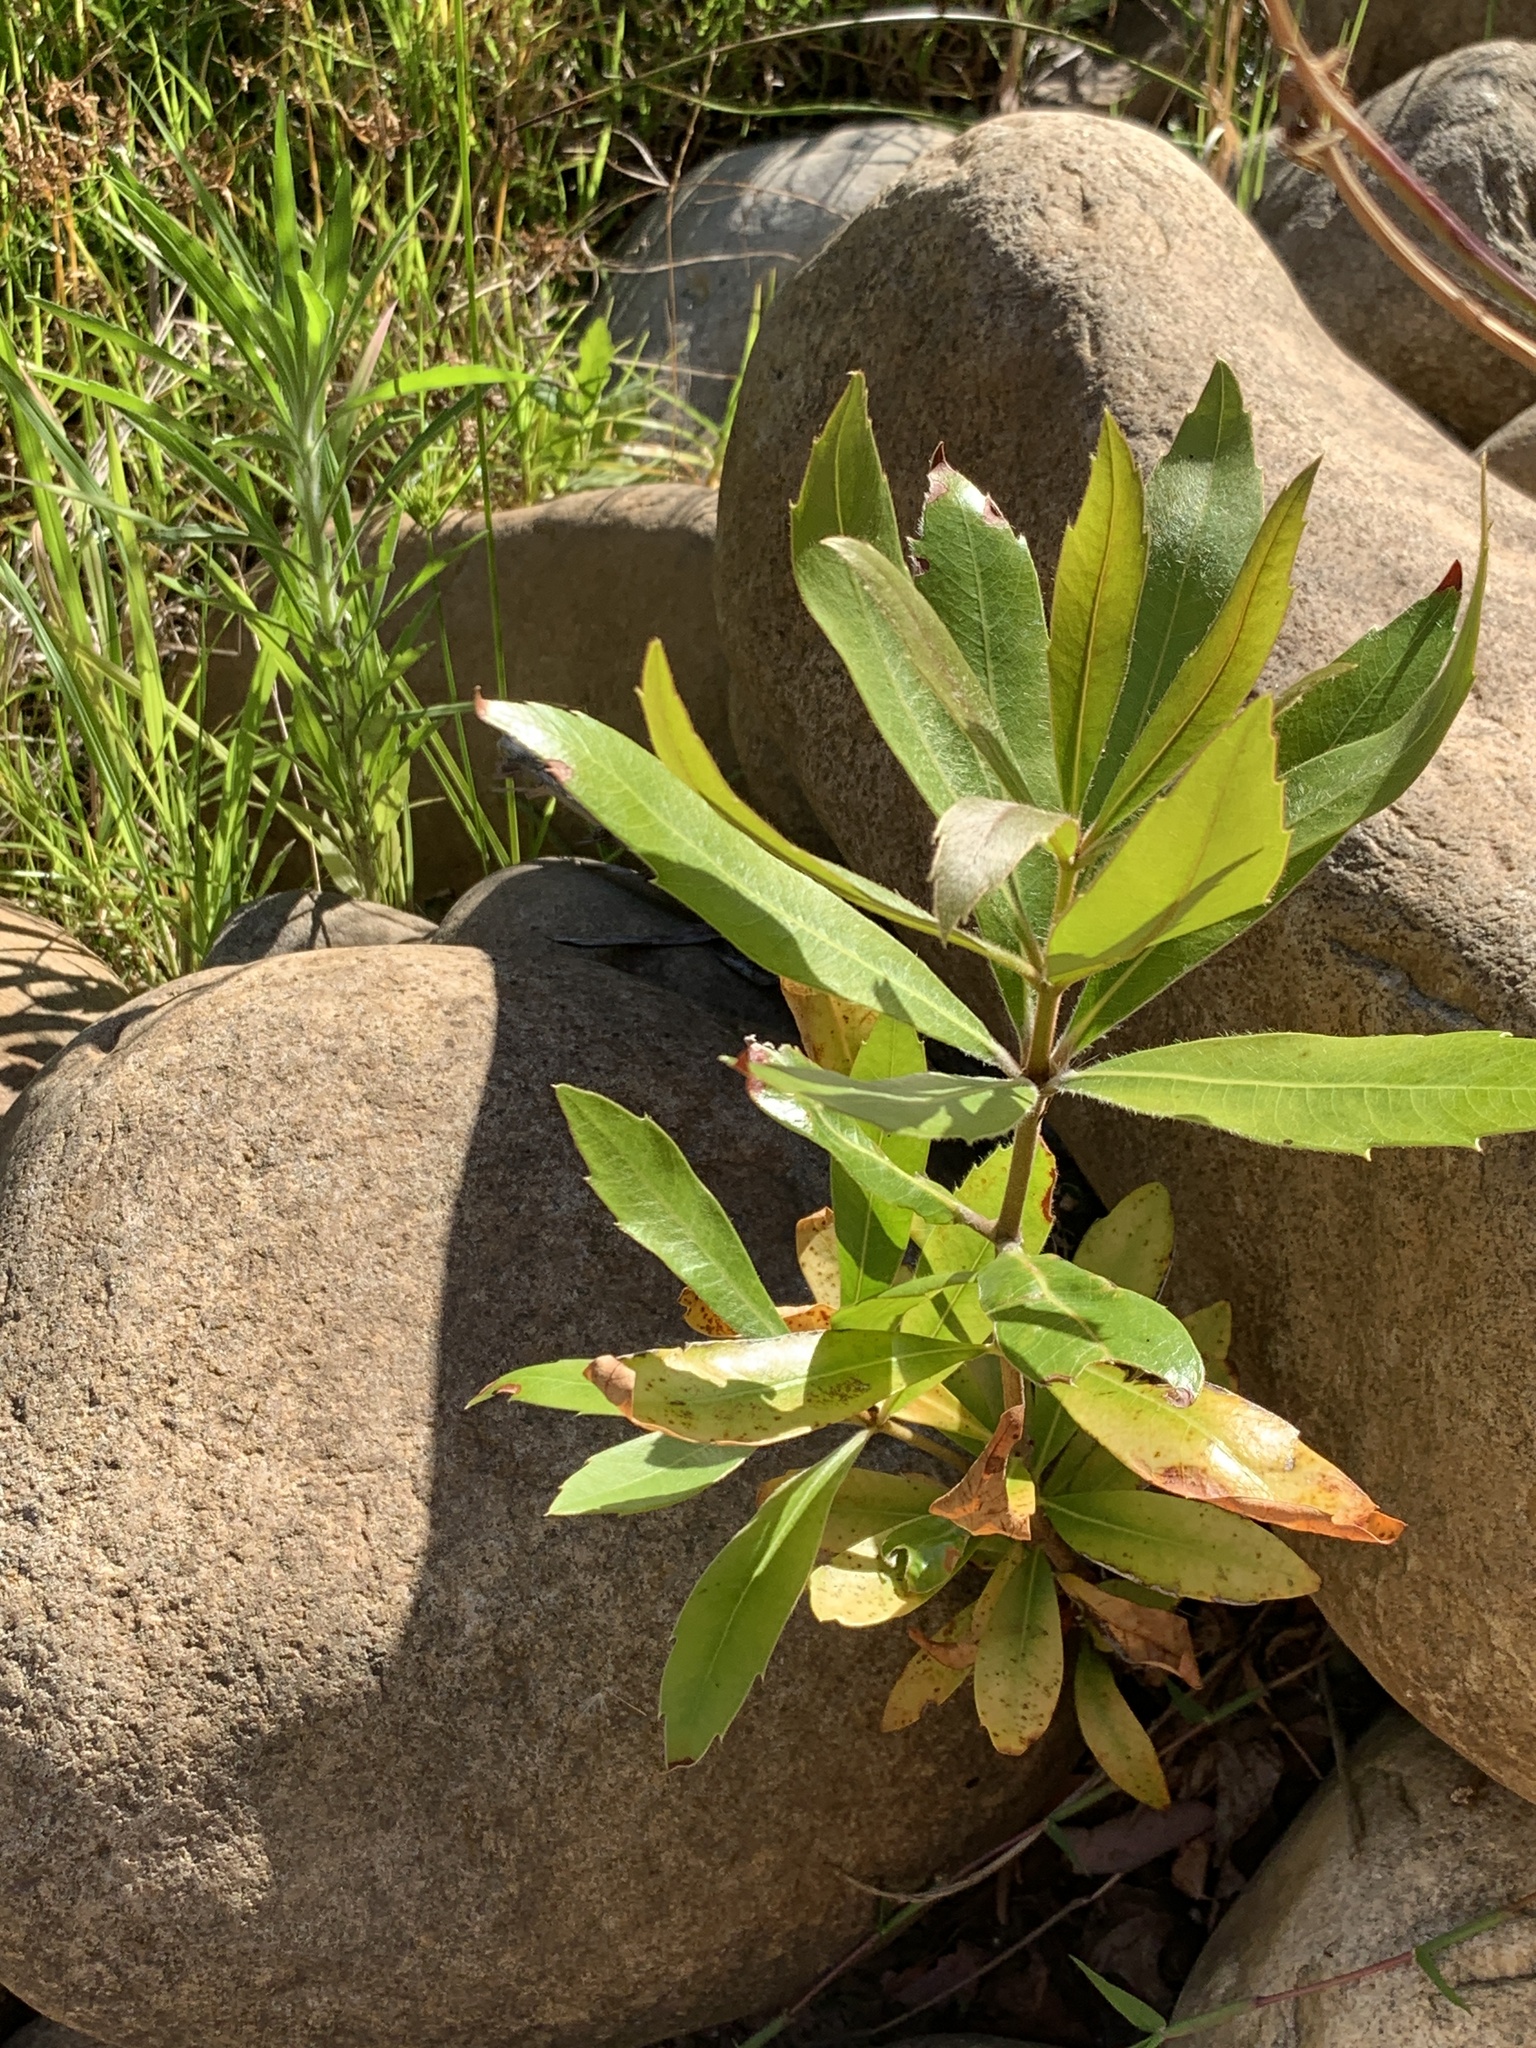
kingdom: Plantae
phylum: Tracheophyta
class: Magnoliopsida
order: Proteales
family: Proteaceae
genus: Brabejum
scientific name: Brabejum stellatifolium
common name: Wild almond
